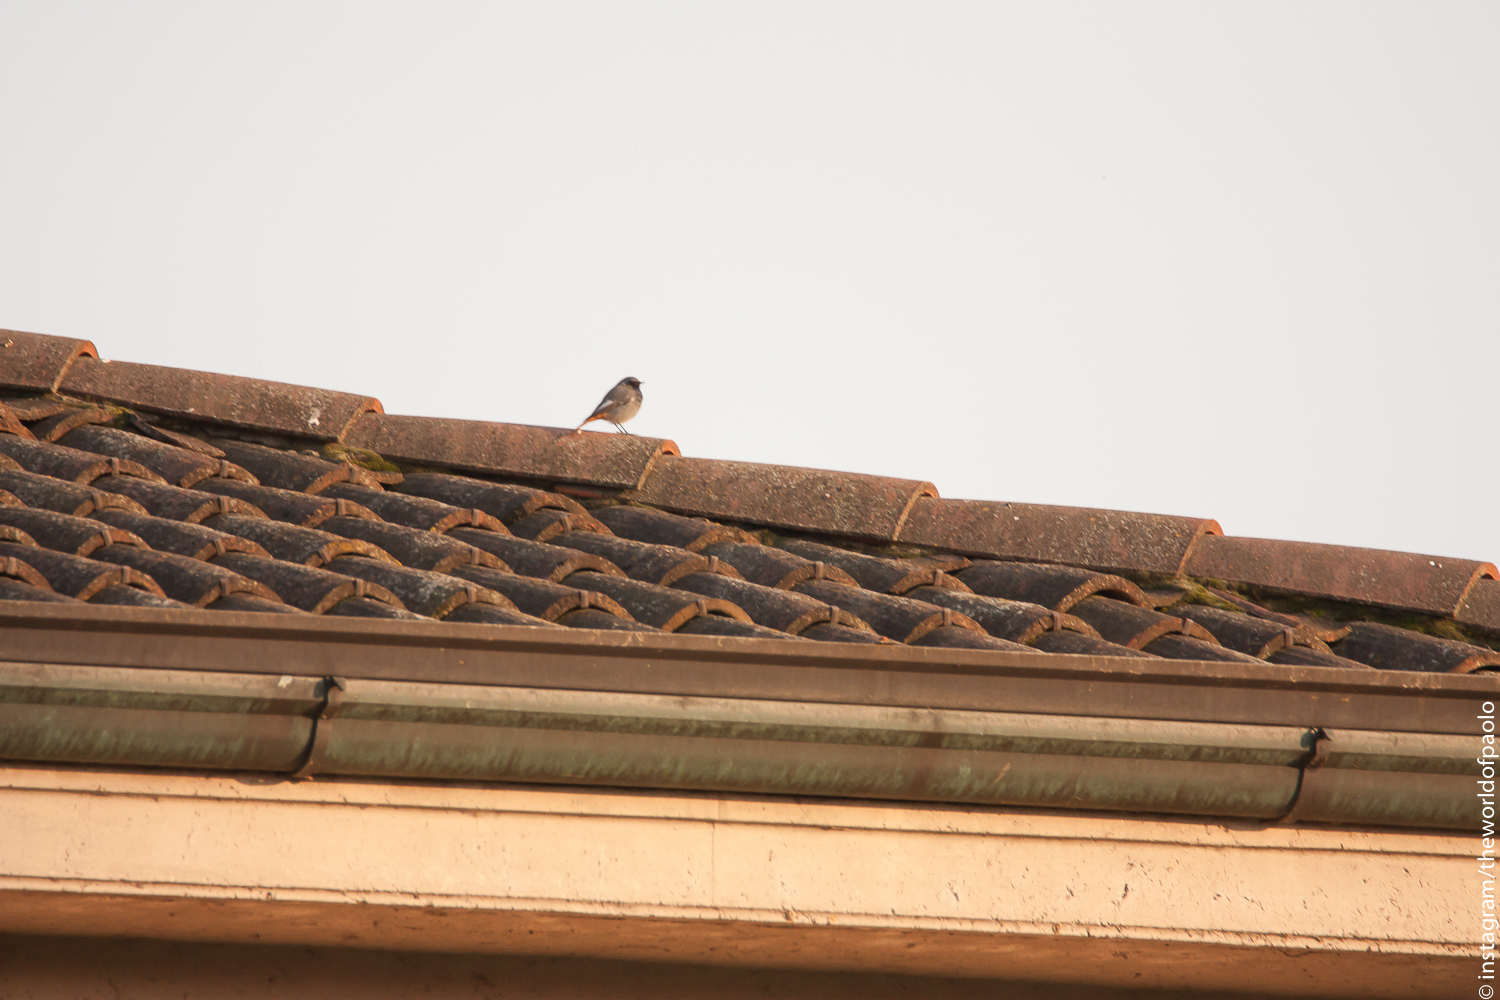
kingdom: Animalia
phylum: Chordata
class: Aves
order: Passeriformes
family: Muscicapidae
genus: Phoenicurus
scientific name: Phoenicurus ochruros
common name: Black redstart
